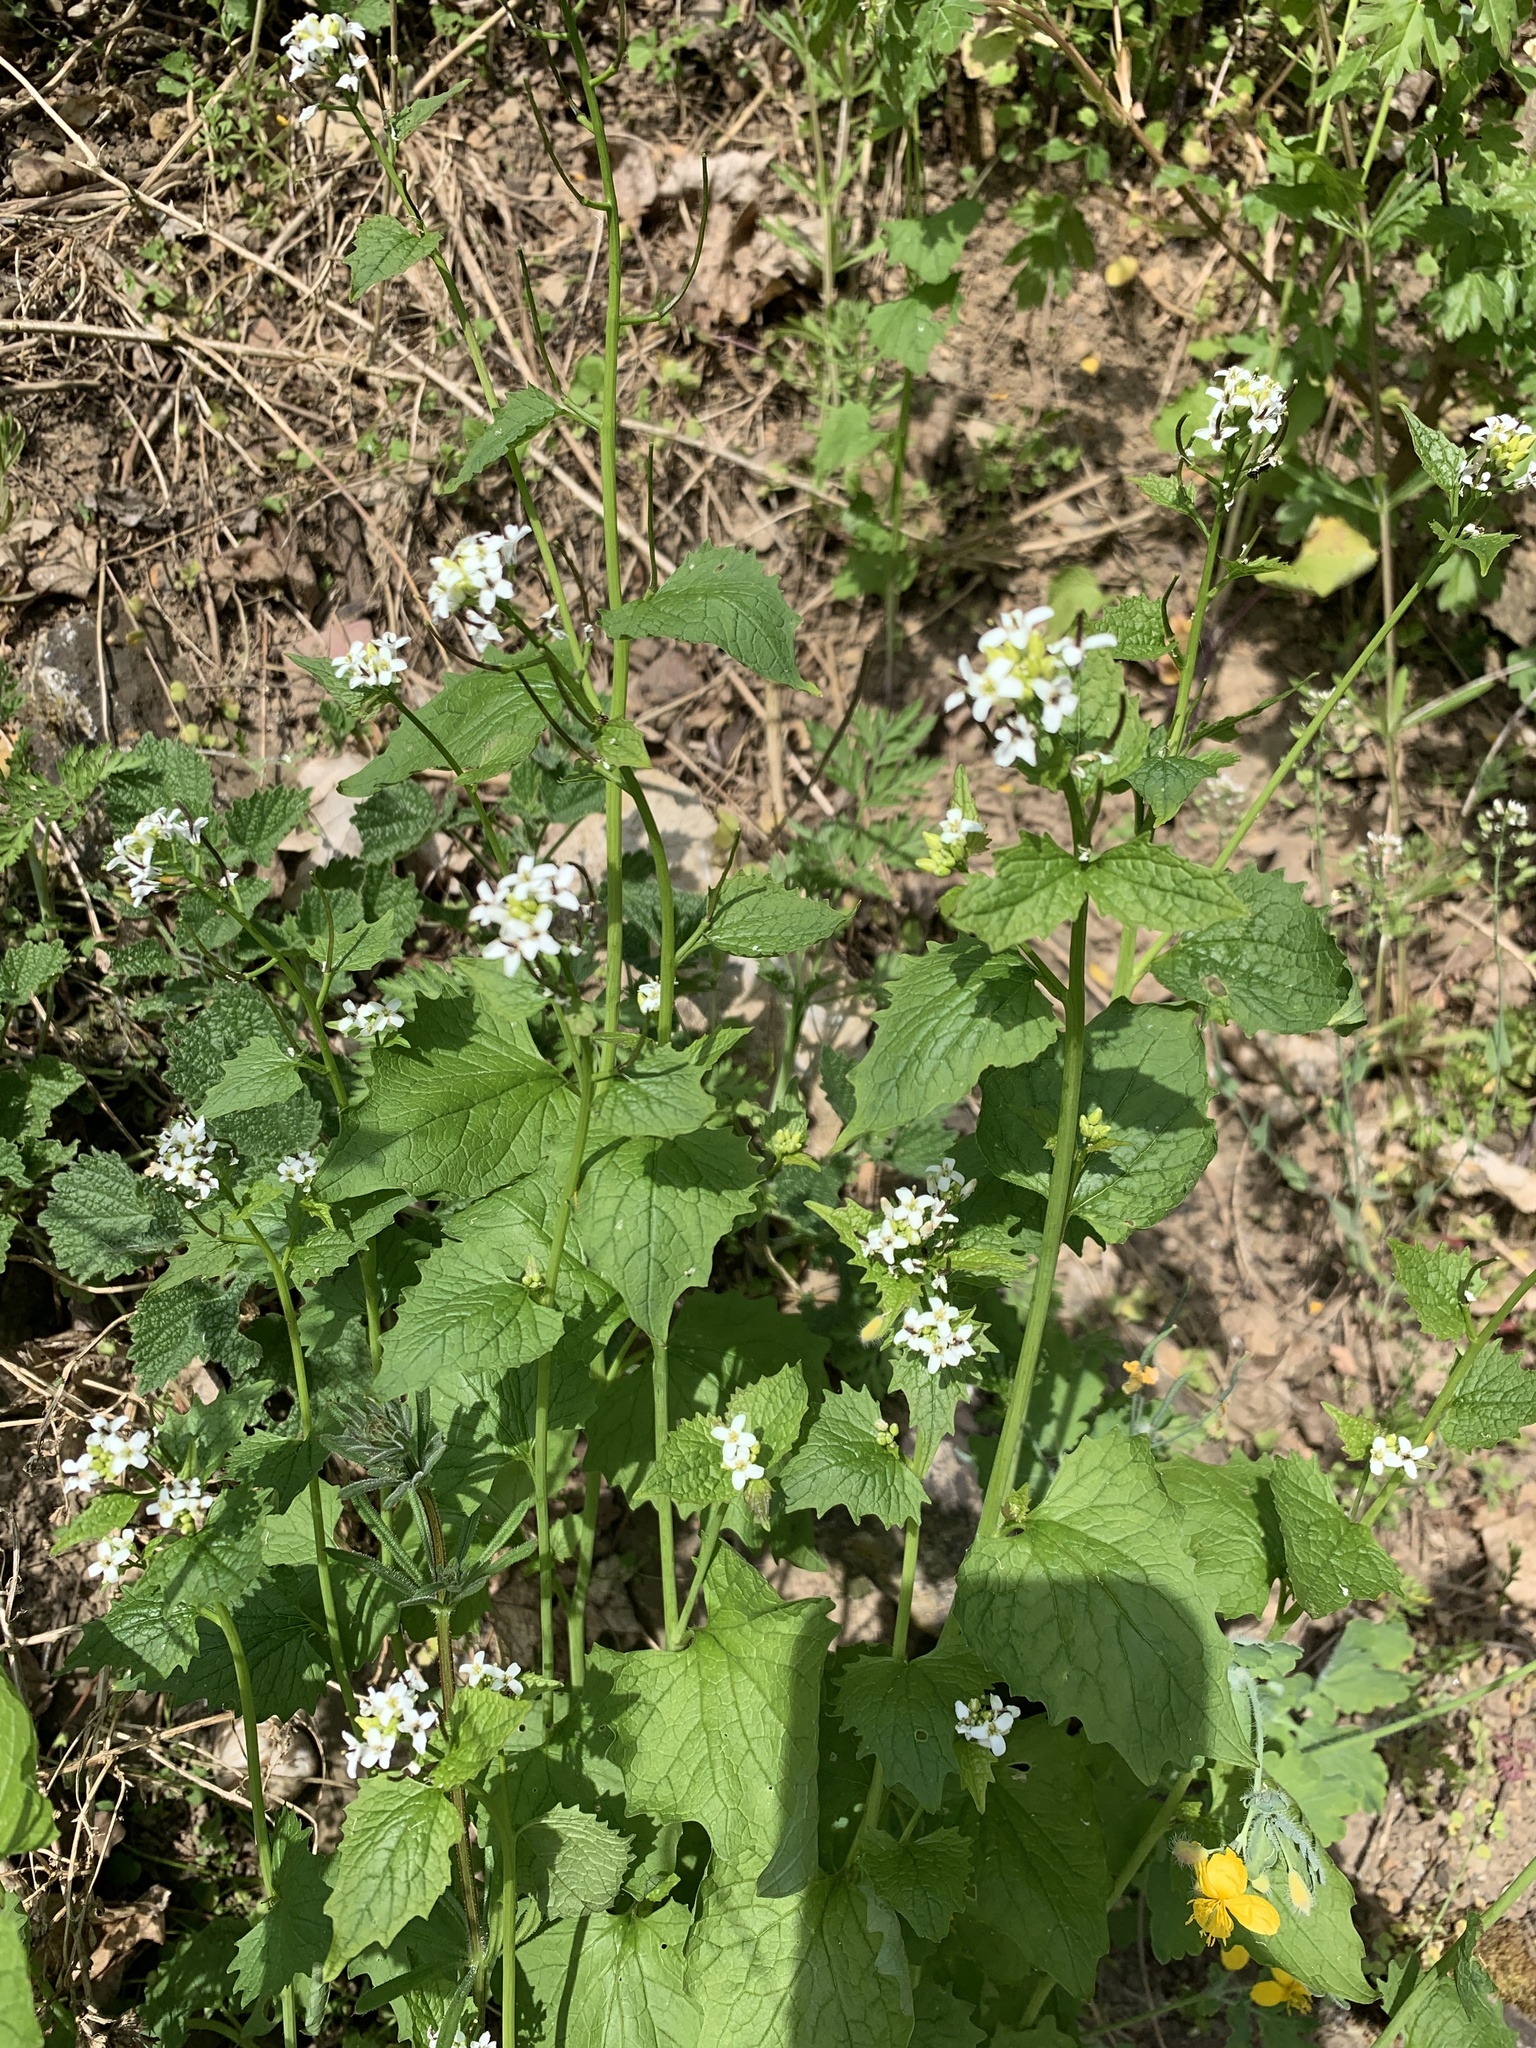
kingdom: Plantae
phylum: Tracheophyta
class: Magnoliopsida
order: Brassicales
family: Brassicaceae
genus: Alliaria
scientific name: Alliaria petiolata
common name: Garlic mustard
